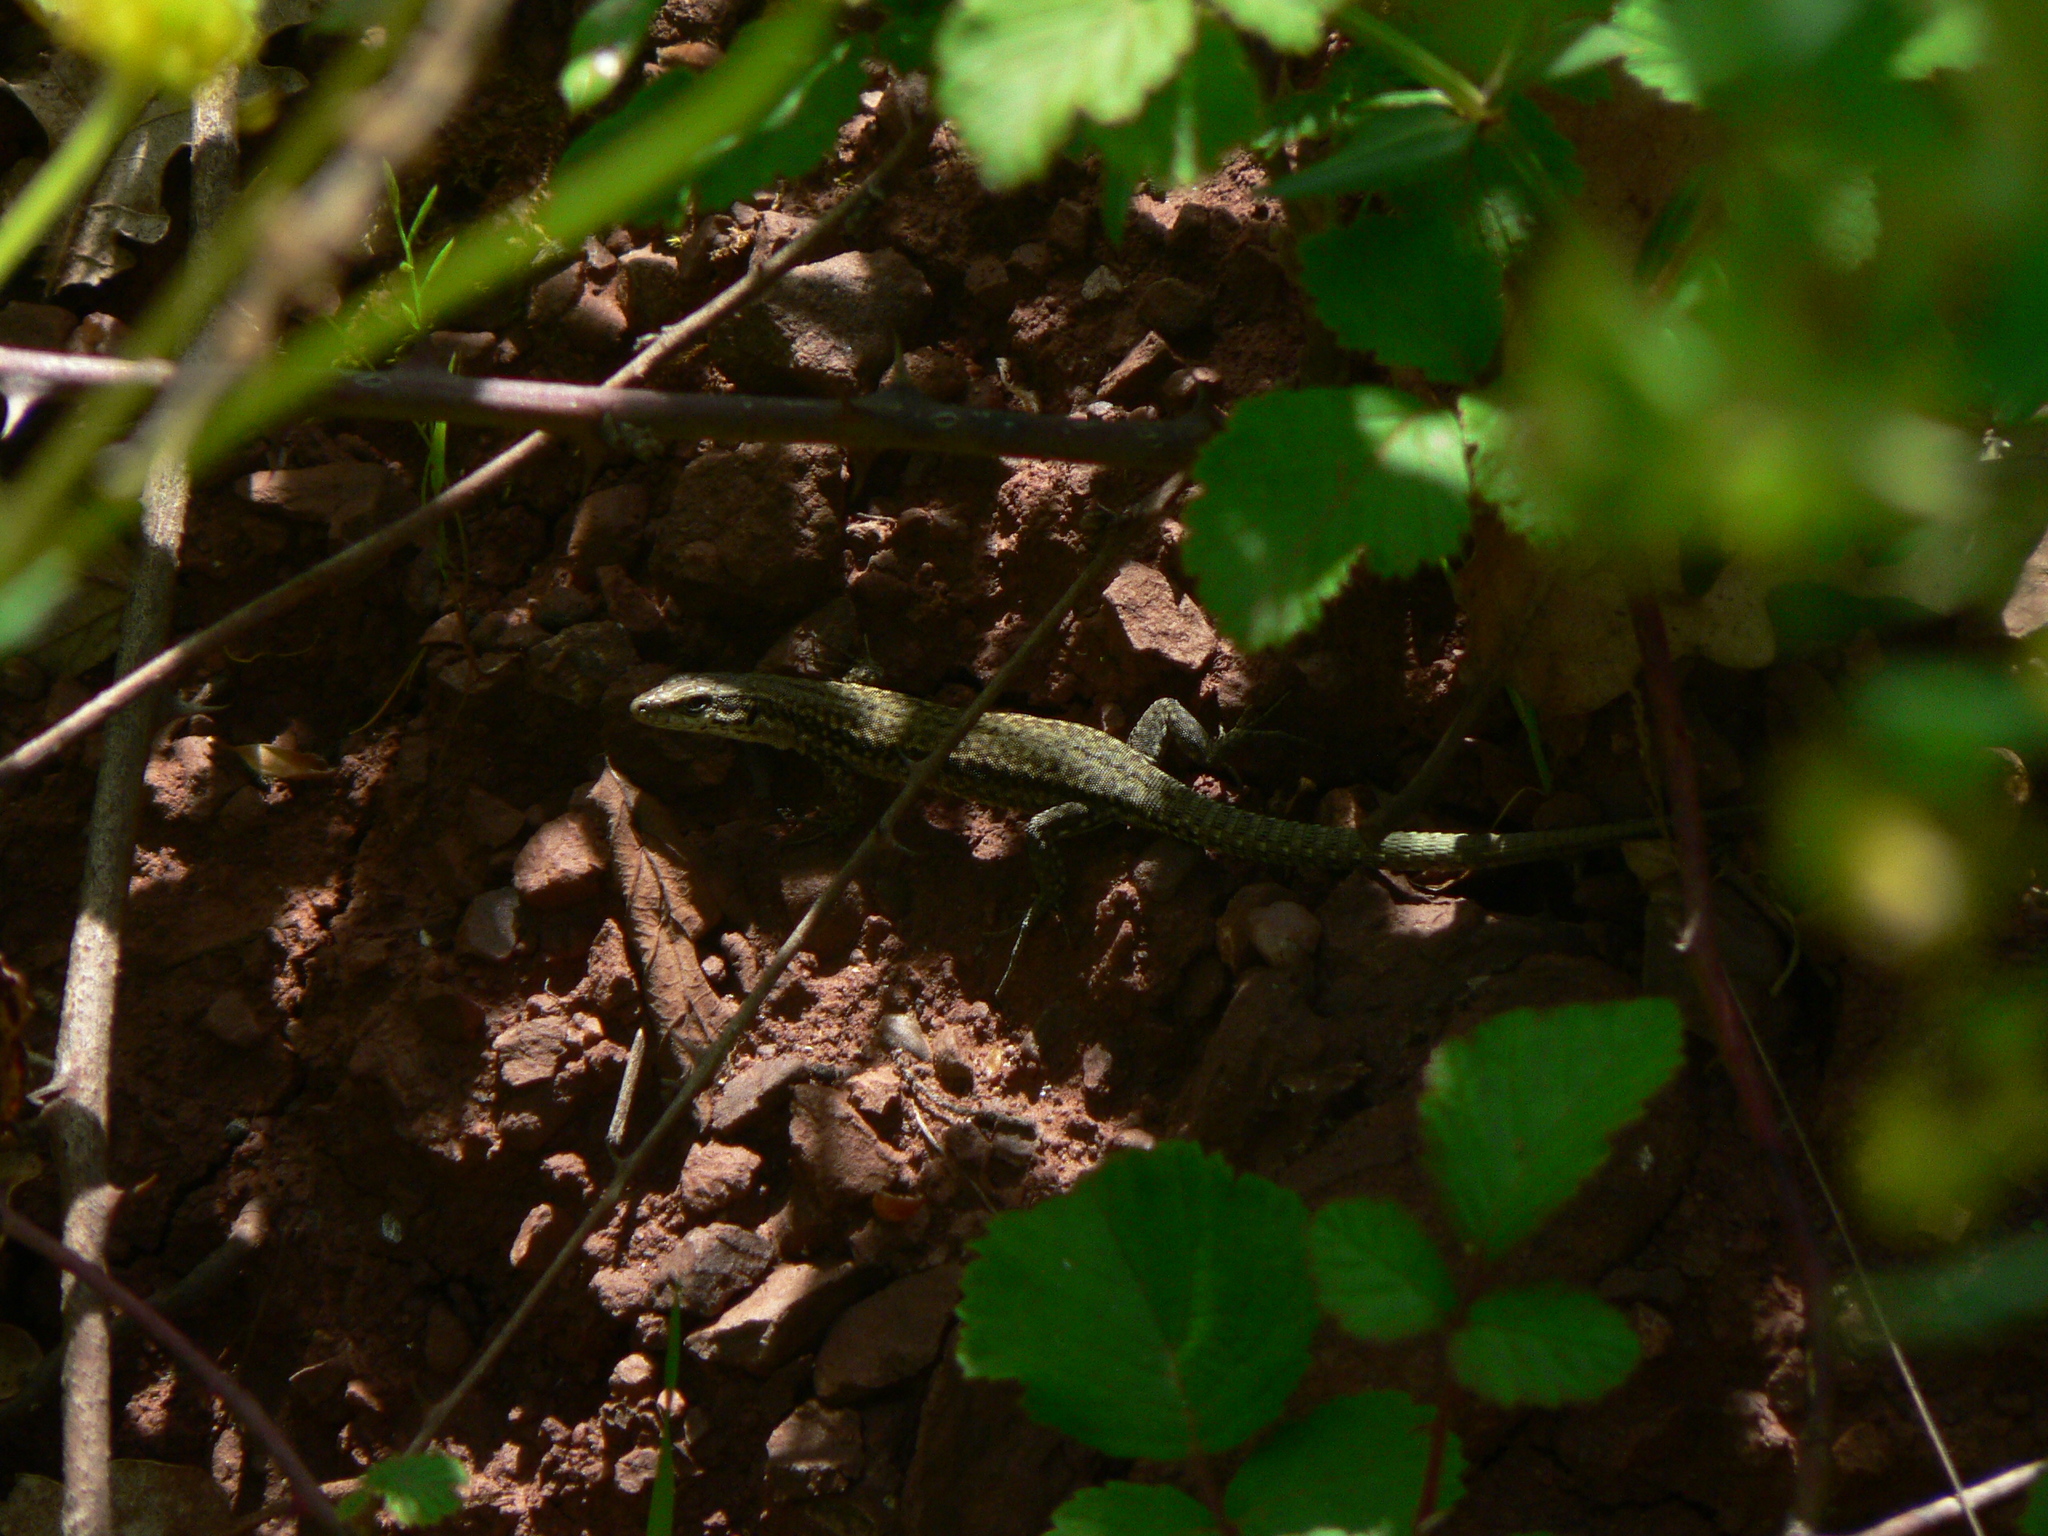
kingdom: Animalia
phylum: Chordata
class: Squamata
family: Lacertidae
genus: Podarcis
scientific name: Podarcis liolepis
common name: Catalonian wall lizard
